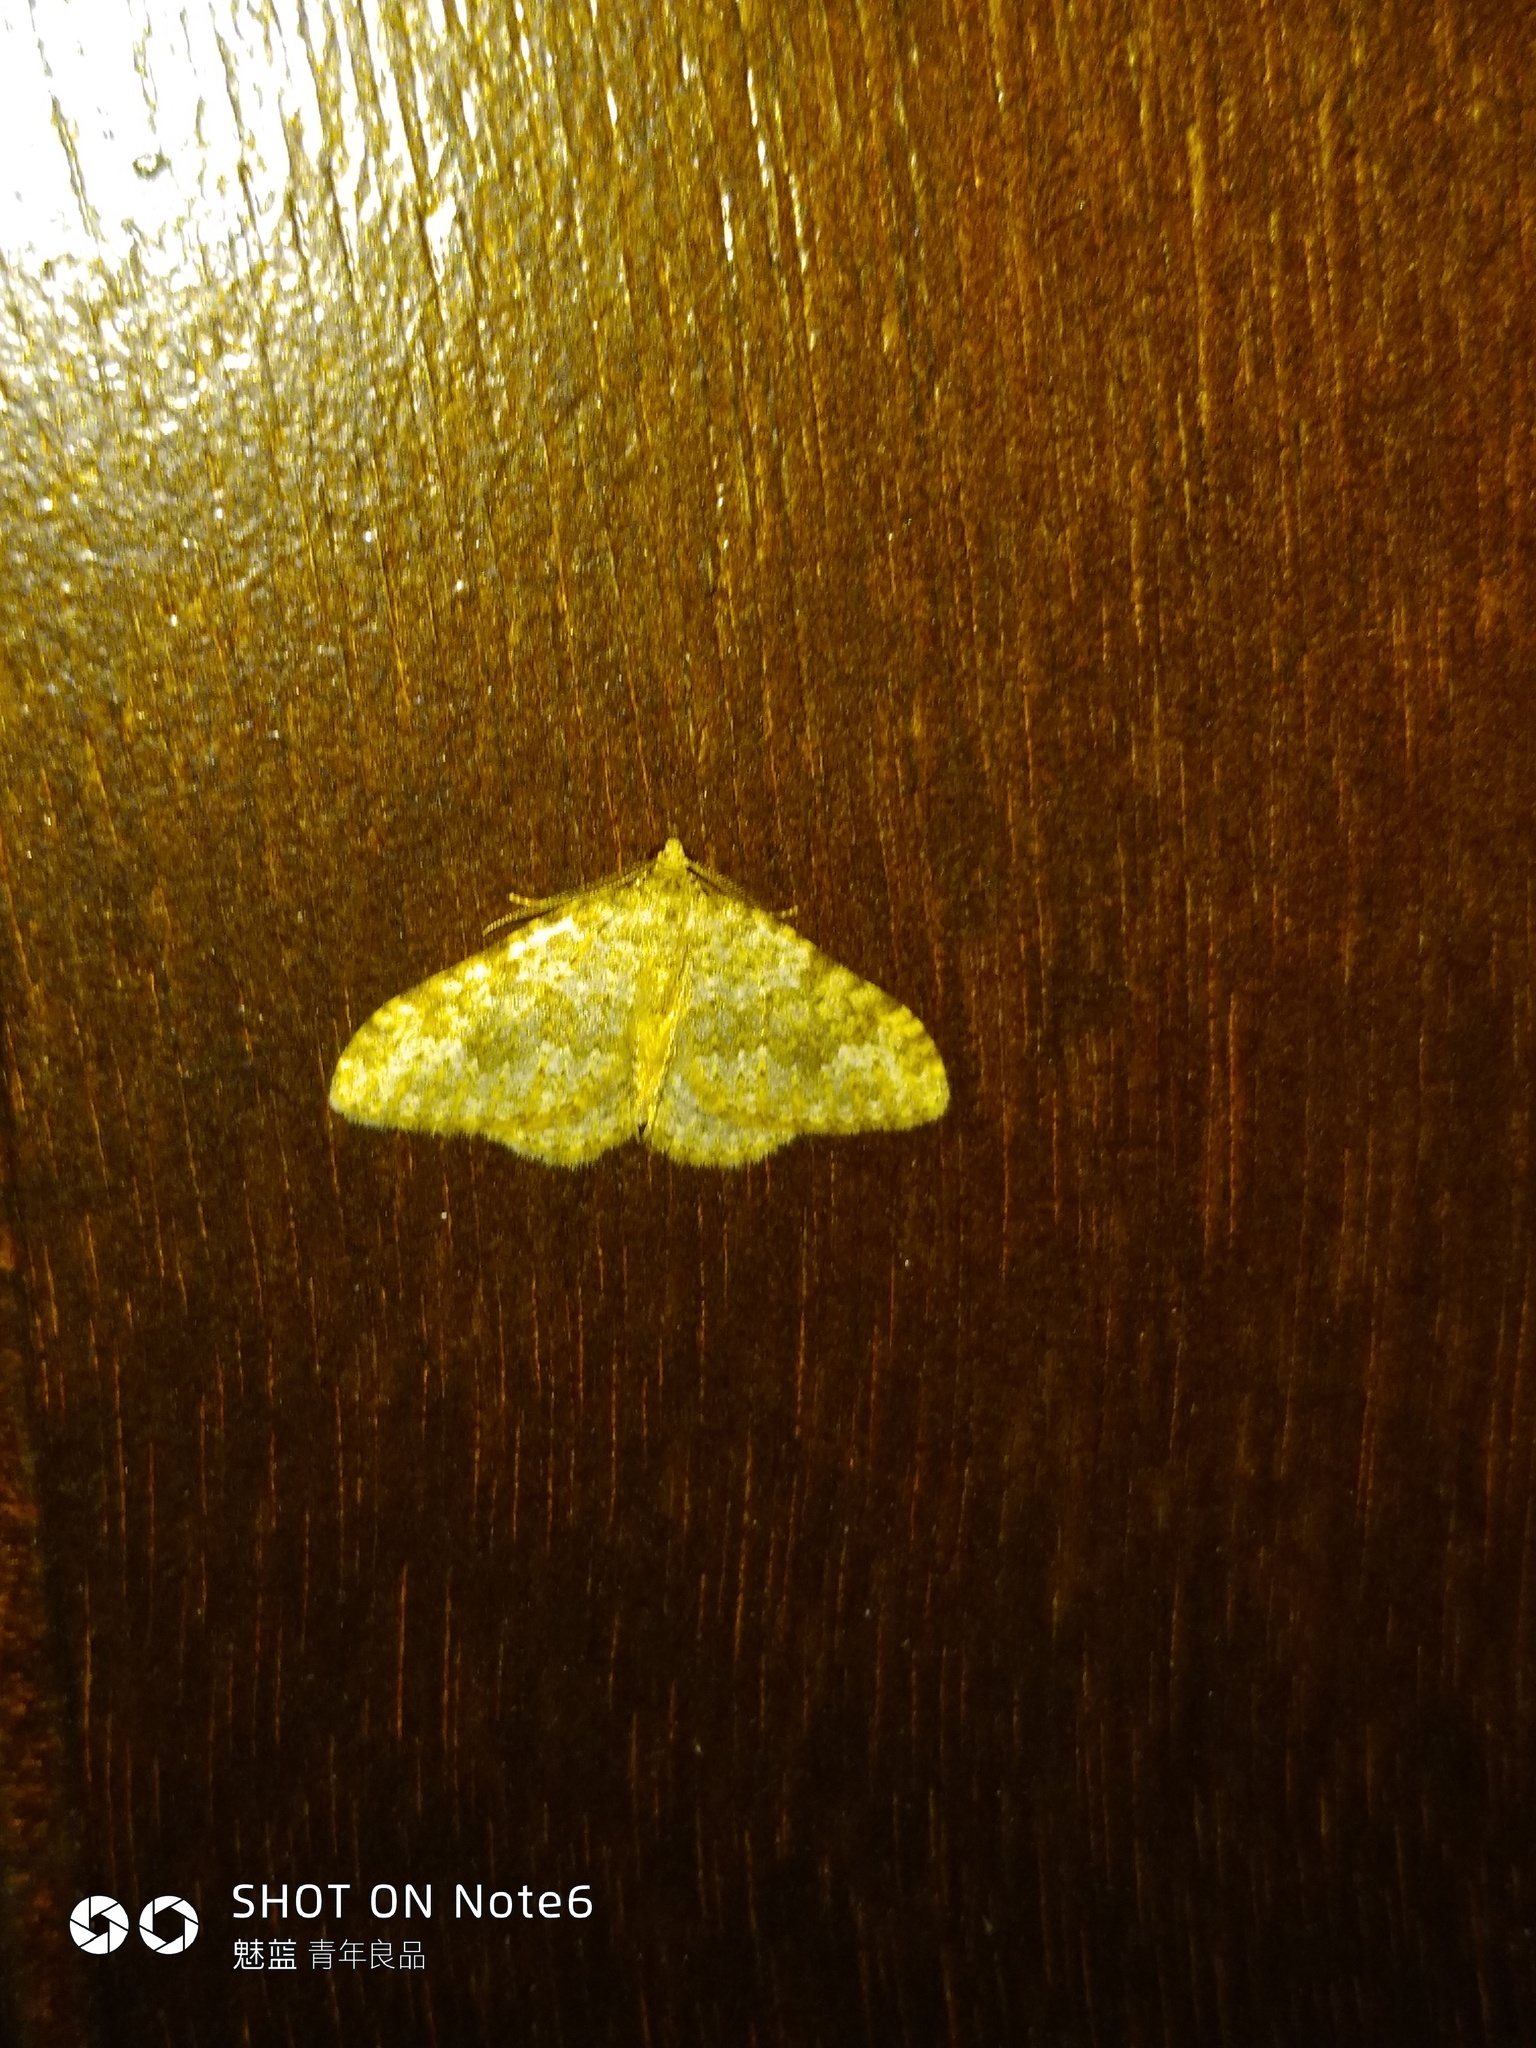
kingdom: Animalia
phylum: Arthropoda
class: Insecta
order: Lepidoptera
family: Geometridae
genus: Nebula
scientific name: Nebula salicata
